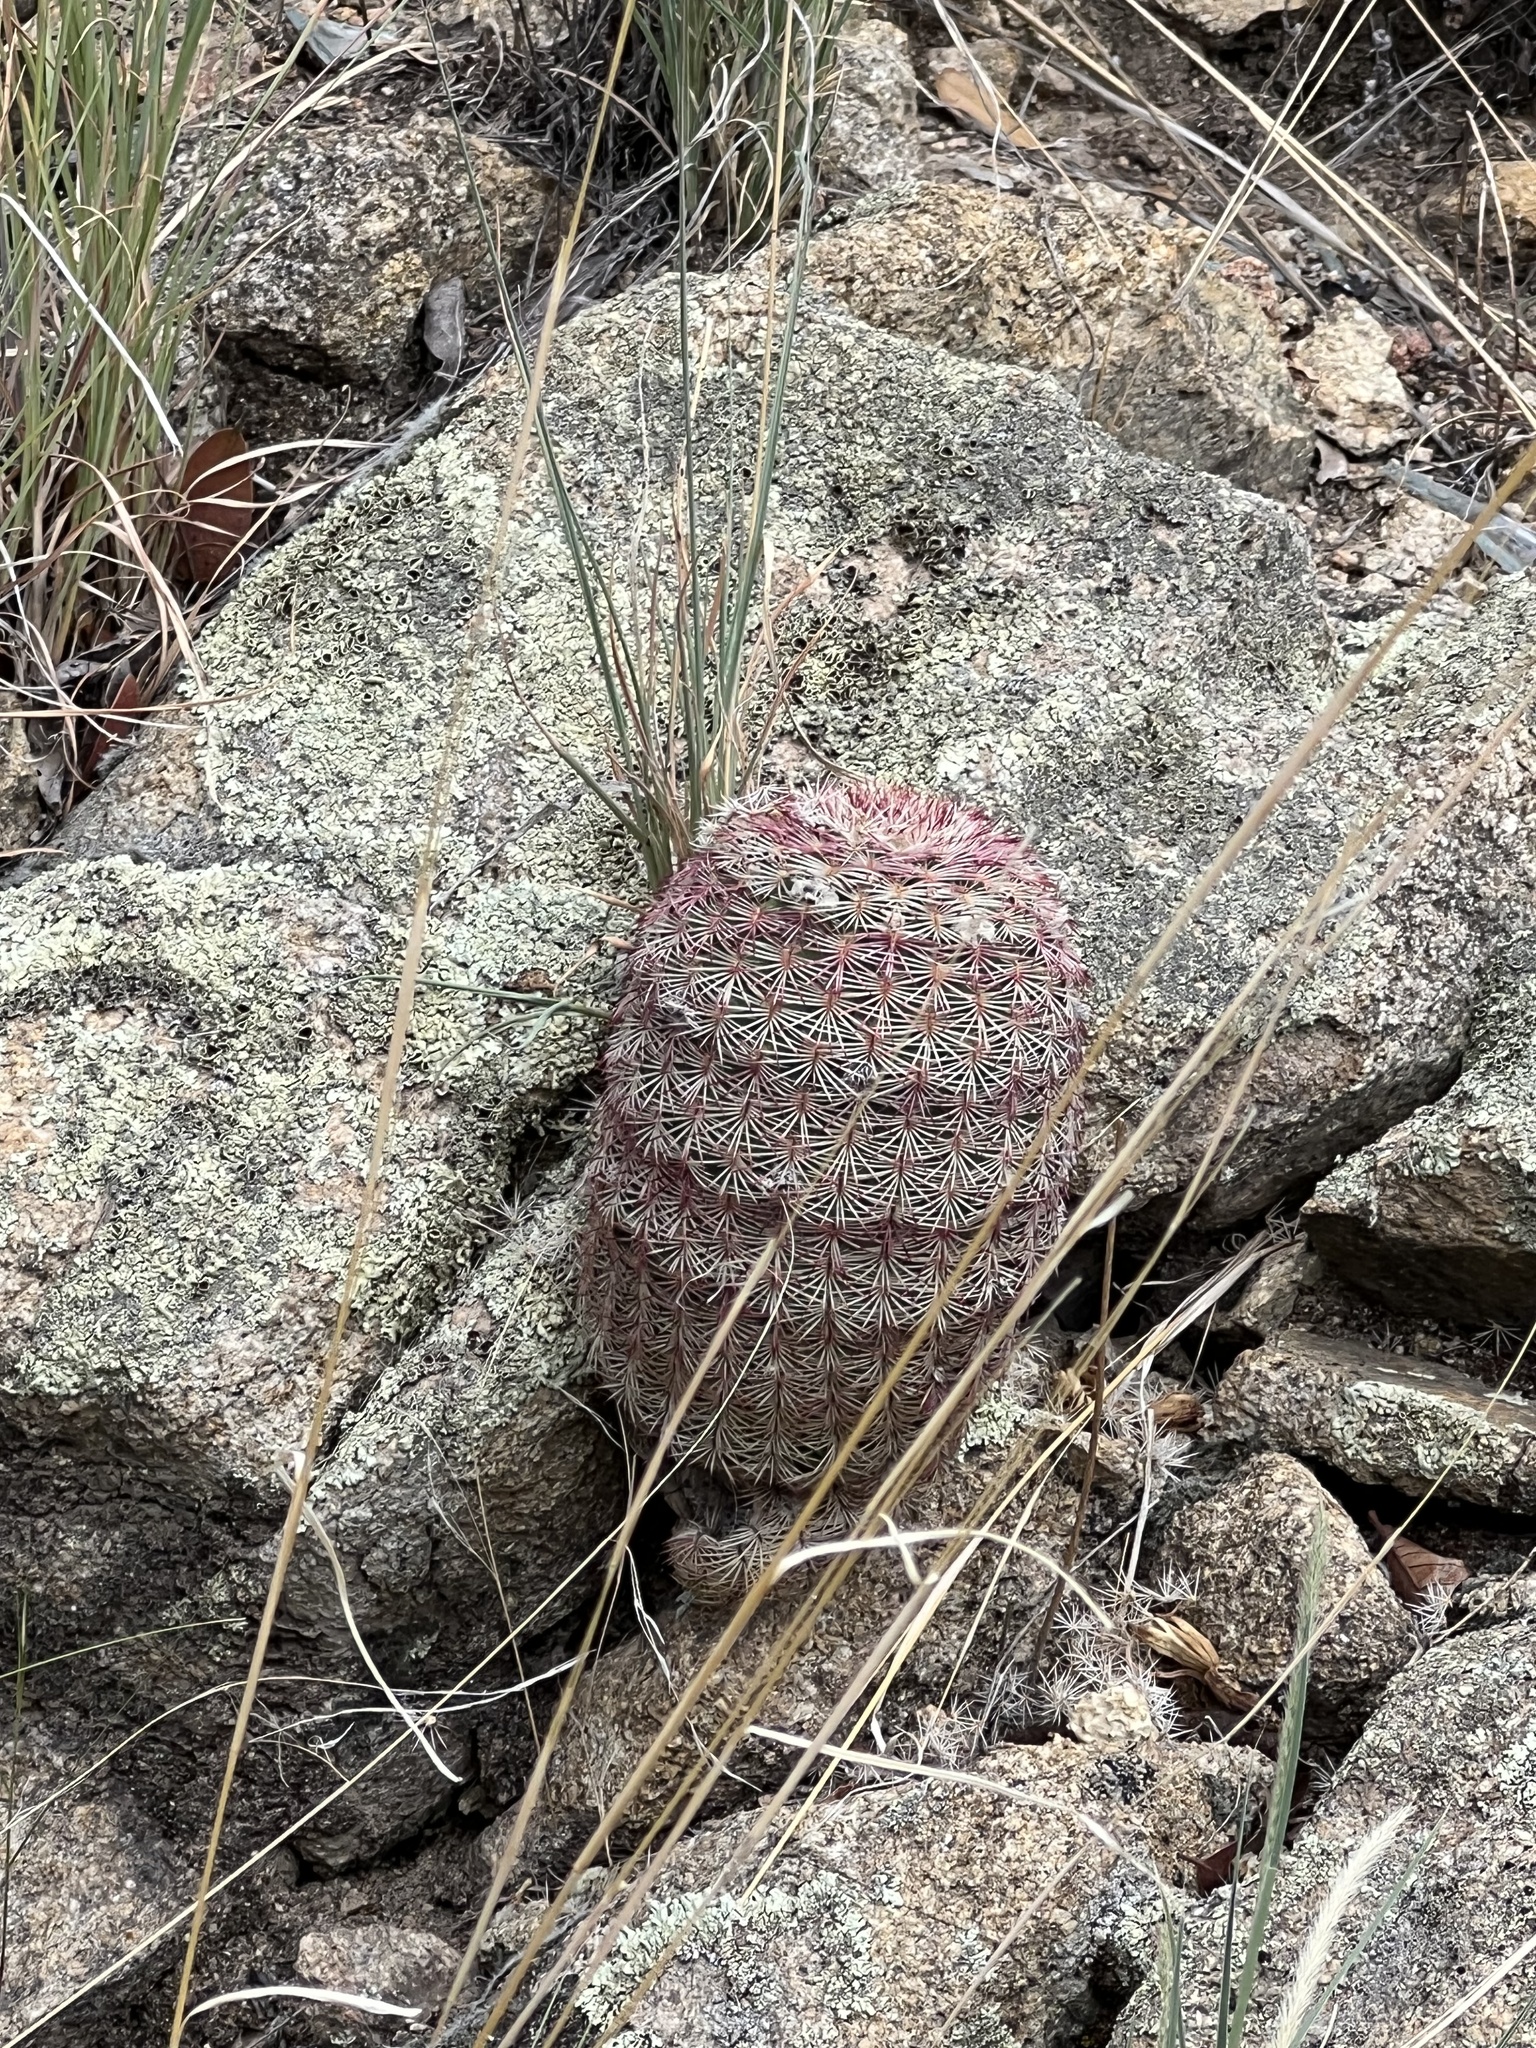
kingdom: Plantae
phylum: Tracheophyta
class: Magnoliopsida
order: Caryophyllales
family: Cactaceae
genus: Echinocereus
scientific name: Echinocereus rigidissimus
